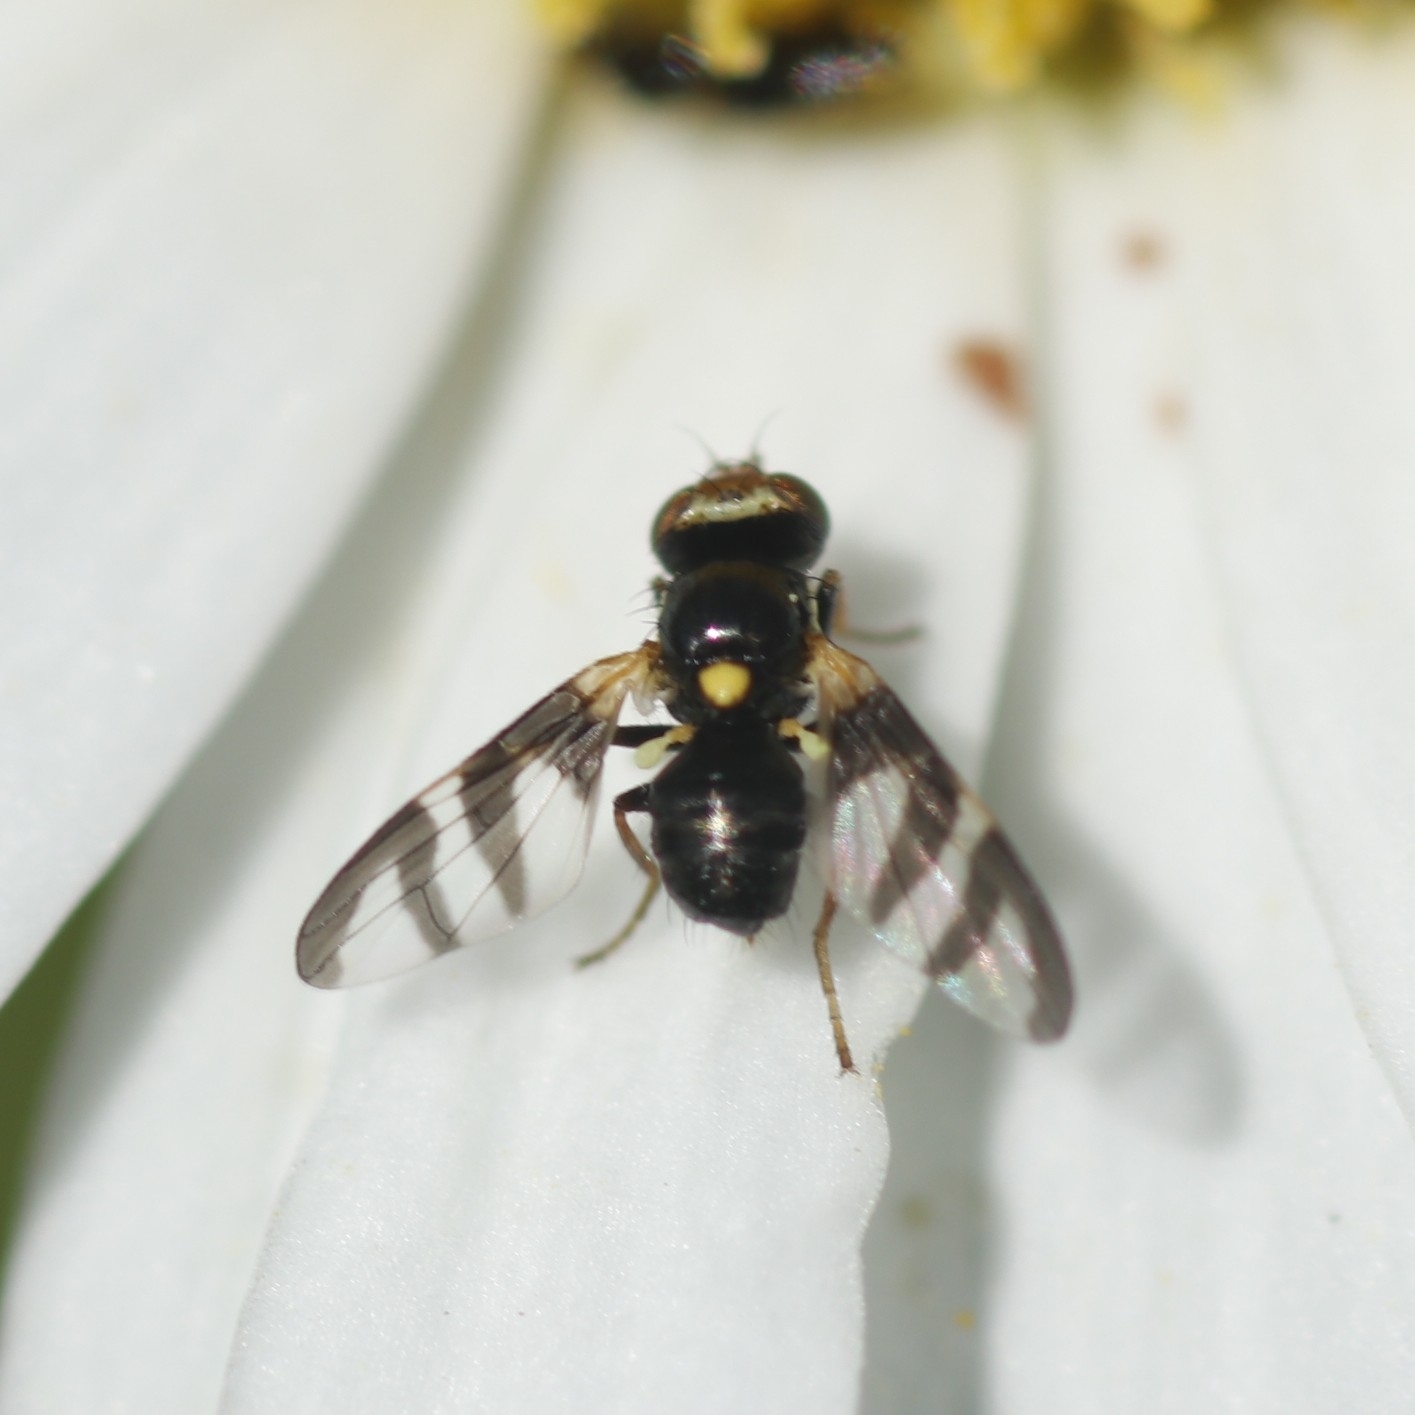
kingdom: Animalia
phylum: Arthropoda
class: Insecta
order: Diptera
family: Tephritidae
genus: Urophora
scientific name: Urophora quadrifasciata
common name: Knapweed seedhead fly
